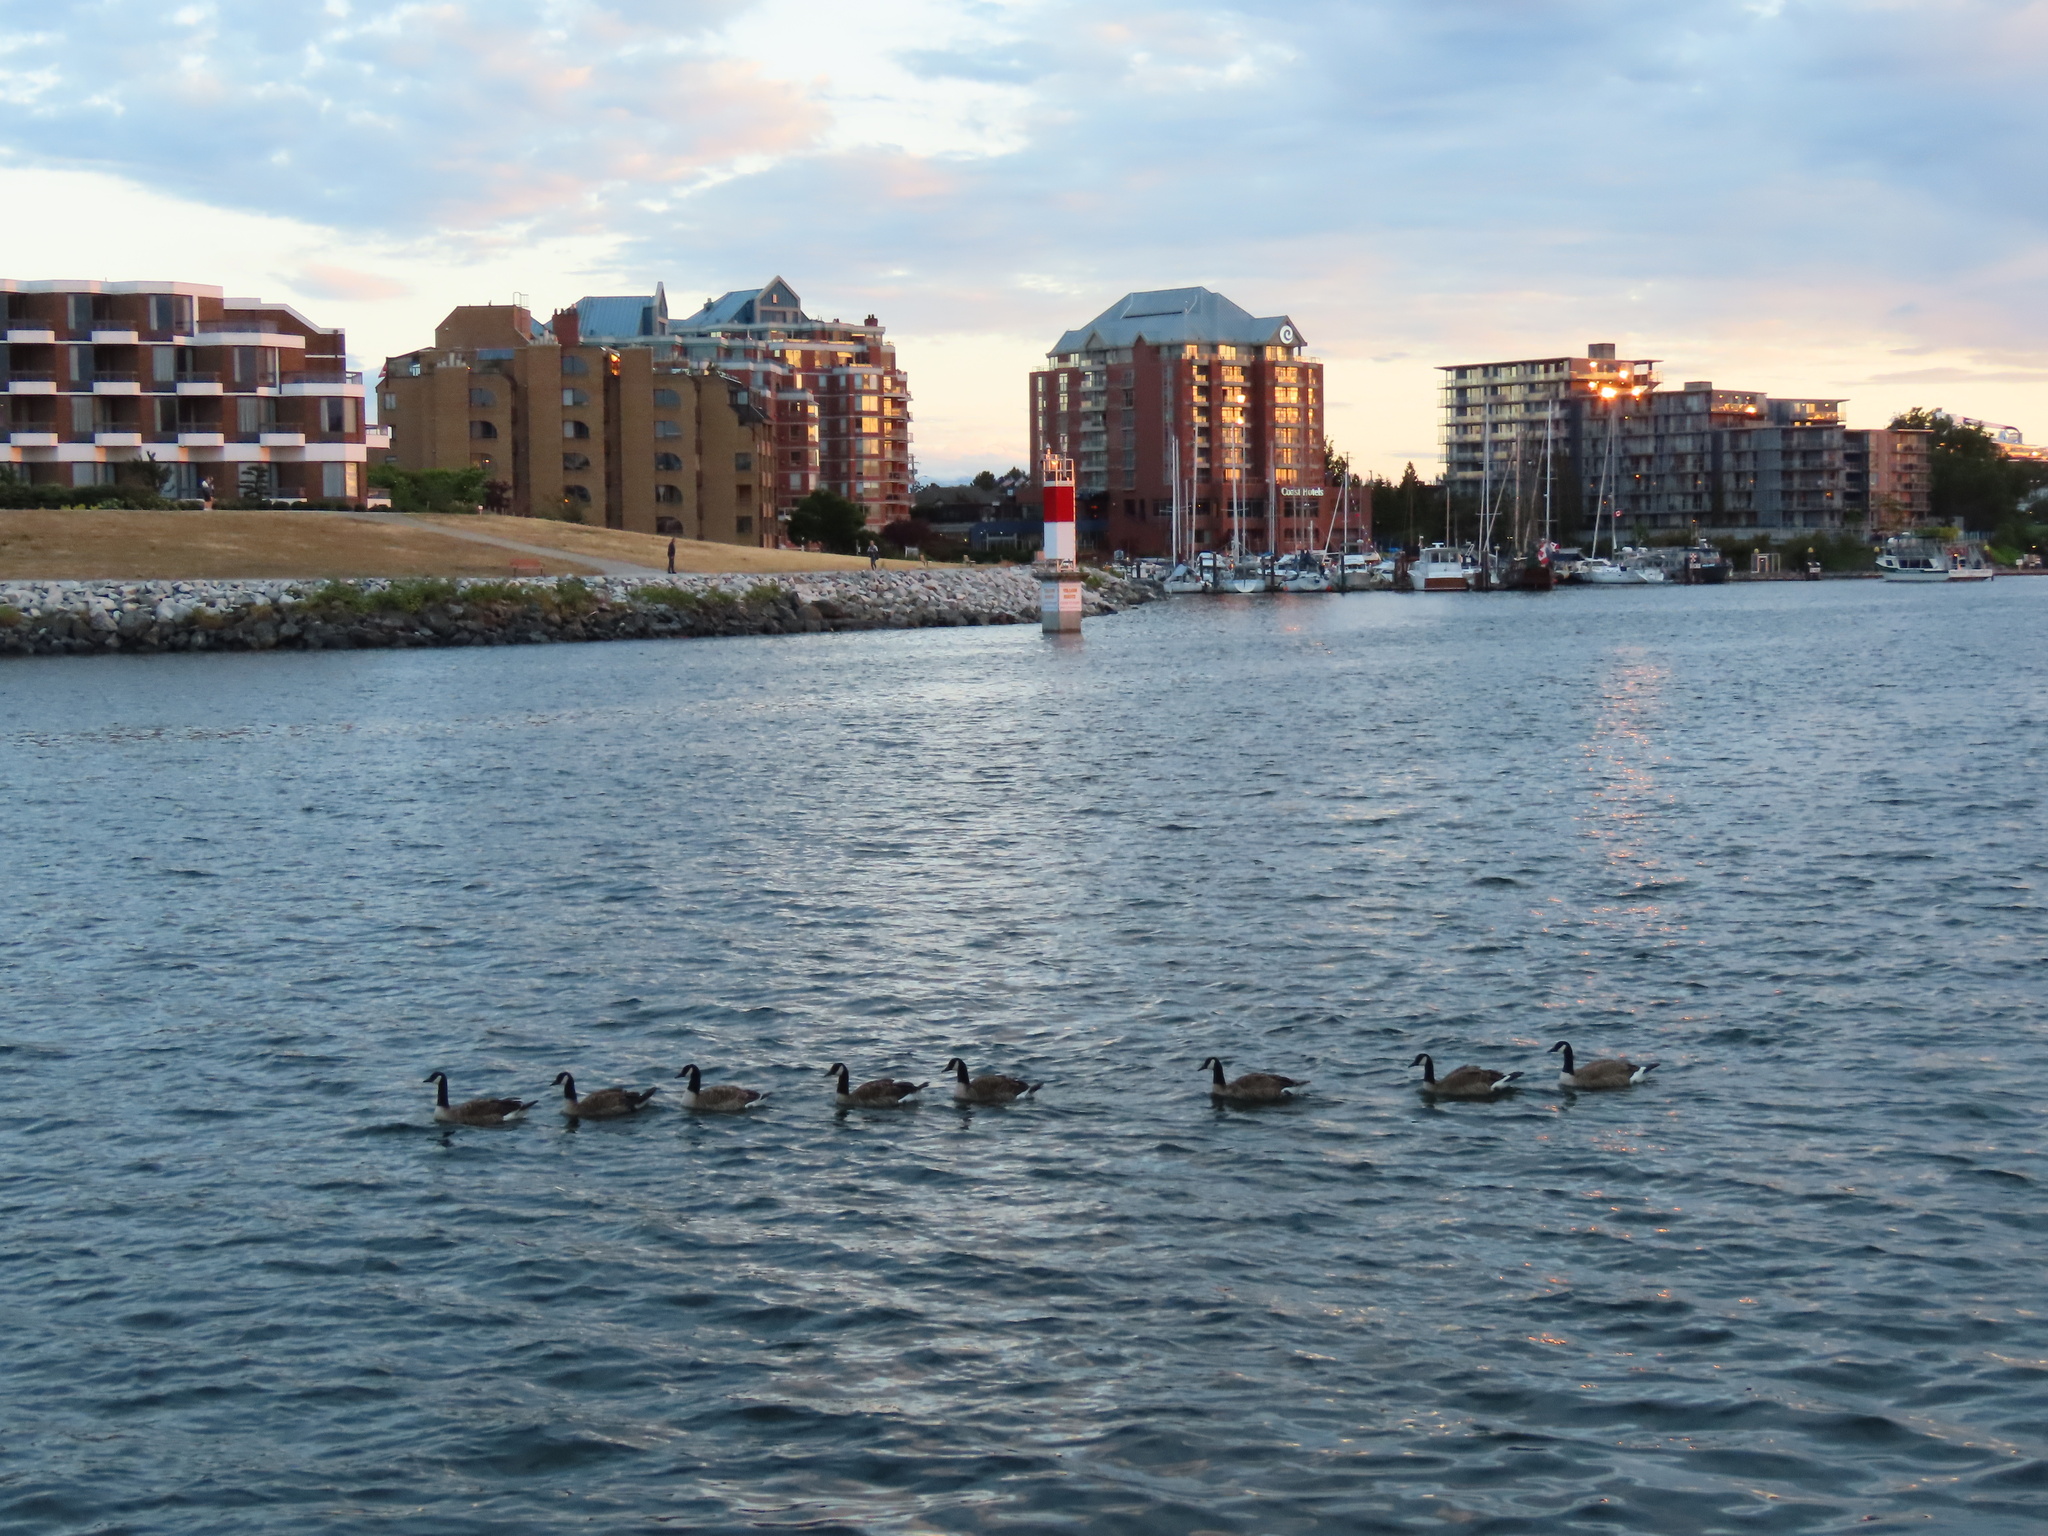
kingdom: Animalia
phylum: Chordata
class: Aves
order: Anseriformes
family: Anatidae
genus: Branta
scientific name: Branta canadensis
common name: Canada goose
